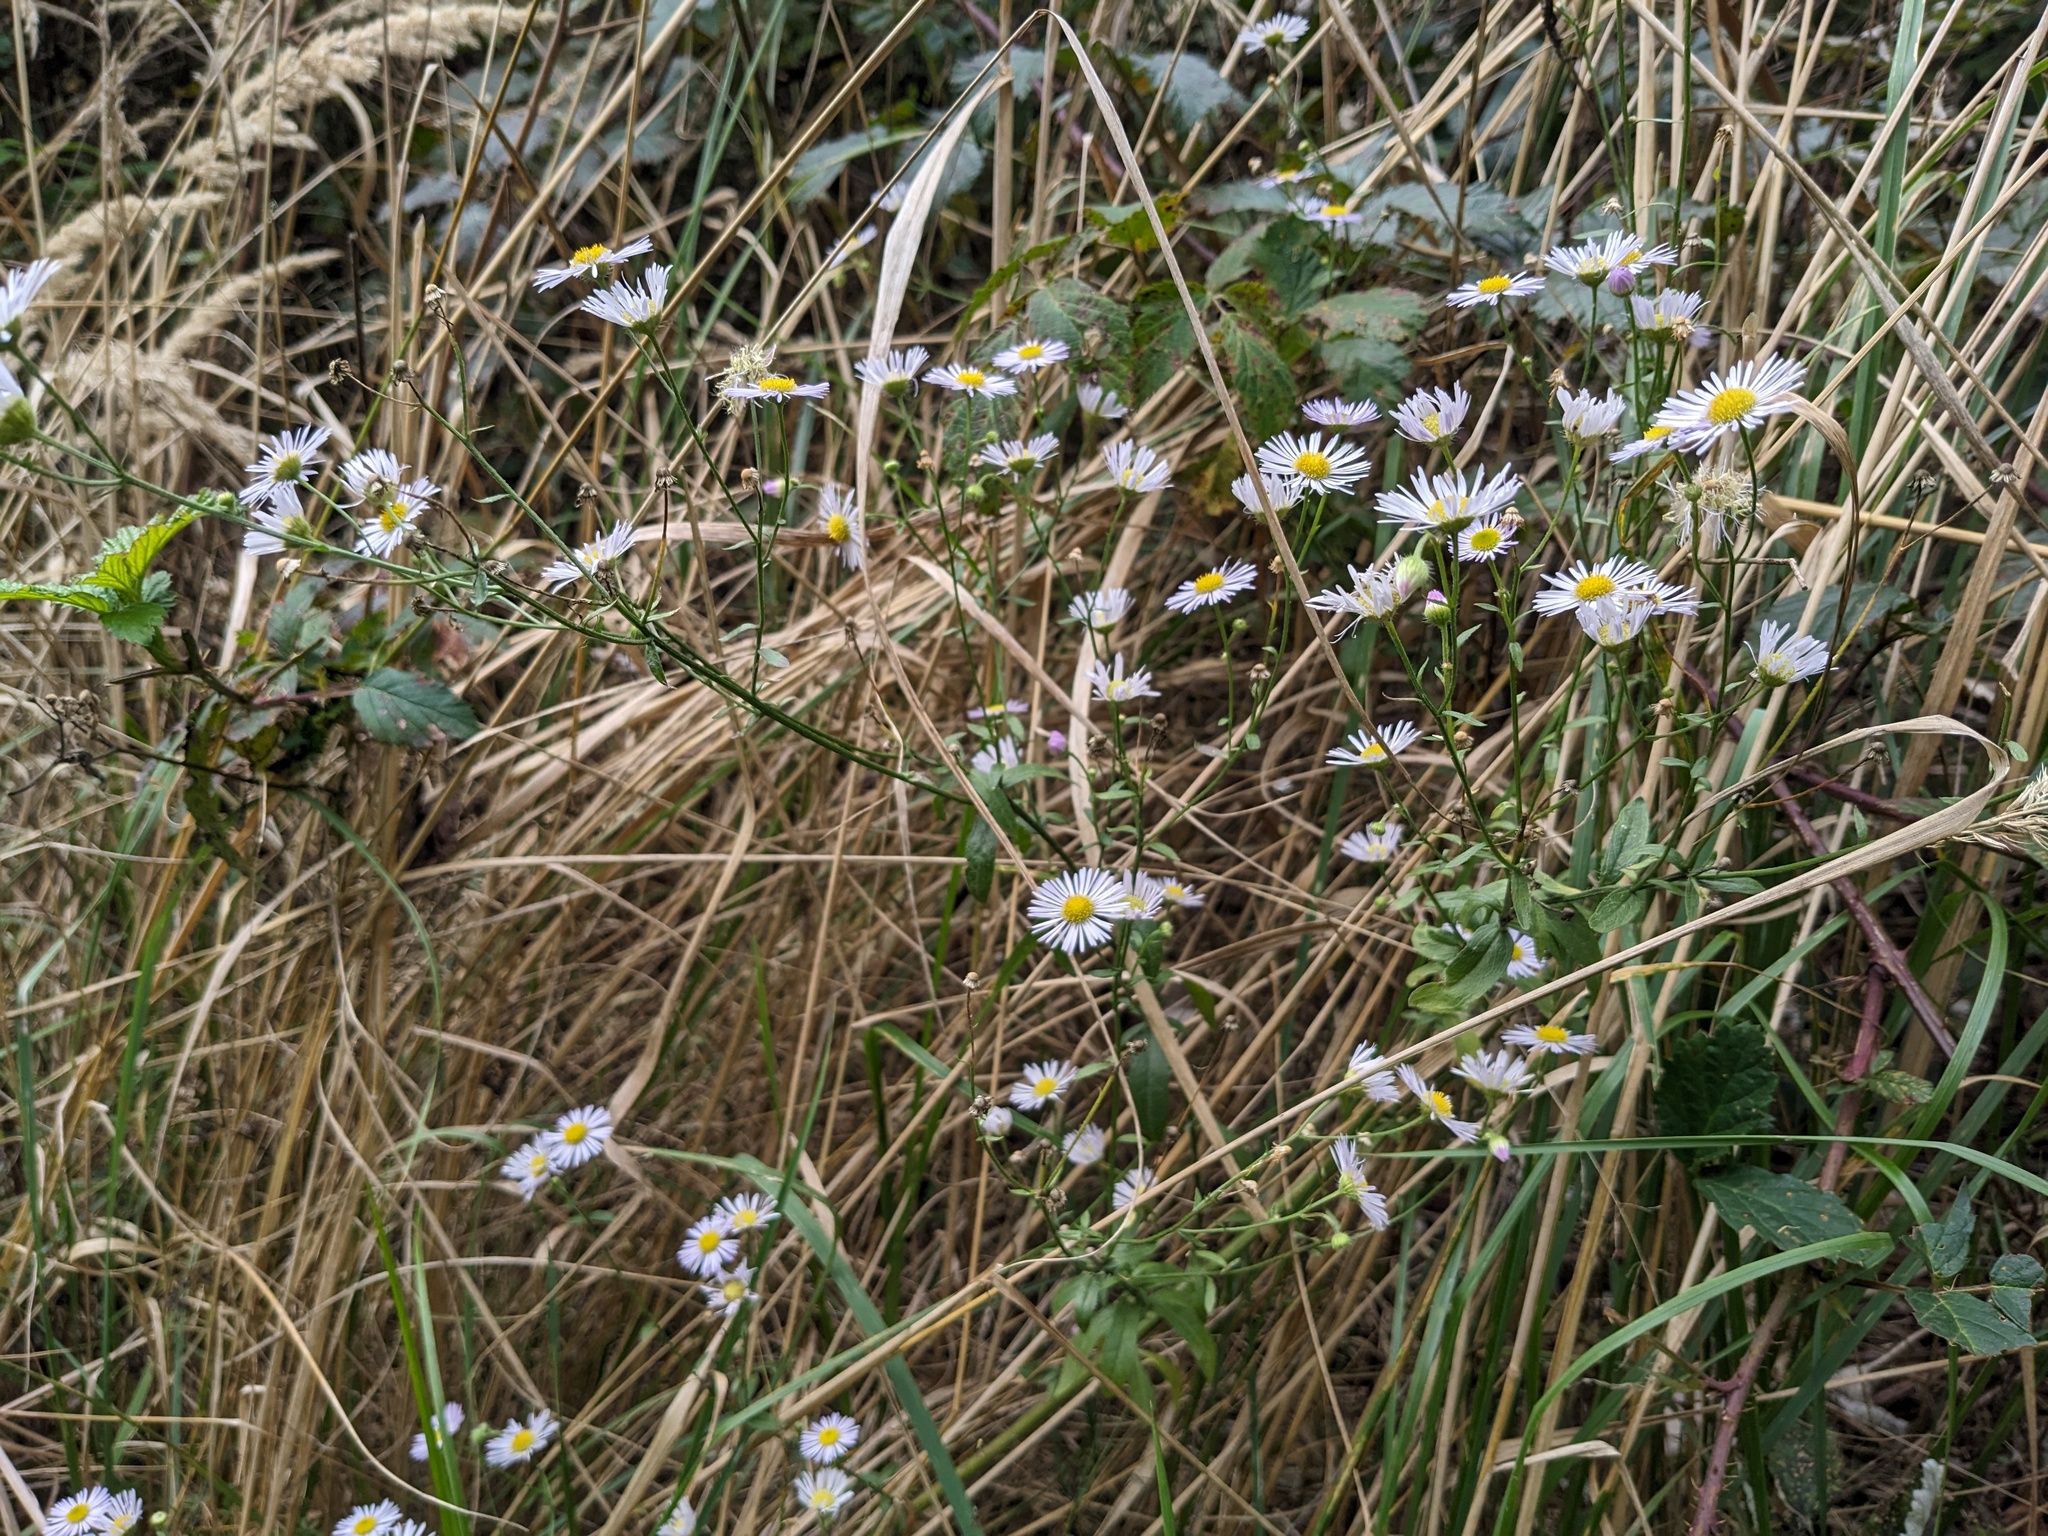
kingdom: Plantae
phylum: Tracheophyta
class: Magnoliopsida
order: Asterales
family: Asteraceae
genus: Erigeron
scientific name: Erigeron annuus
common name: Tall fleabane
